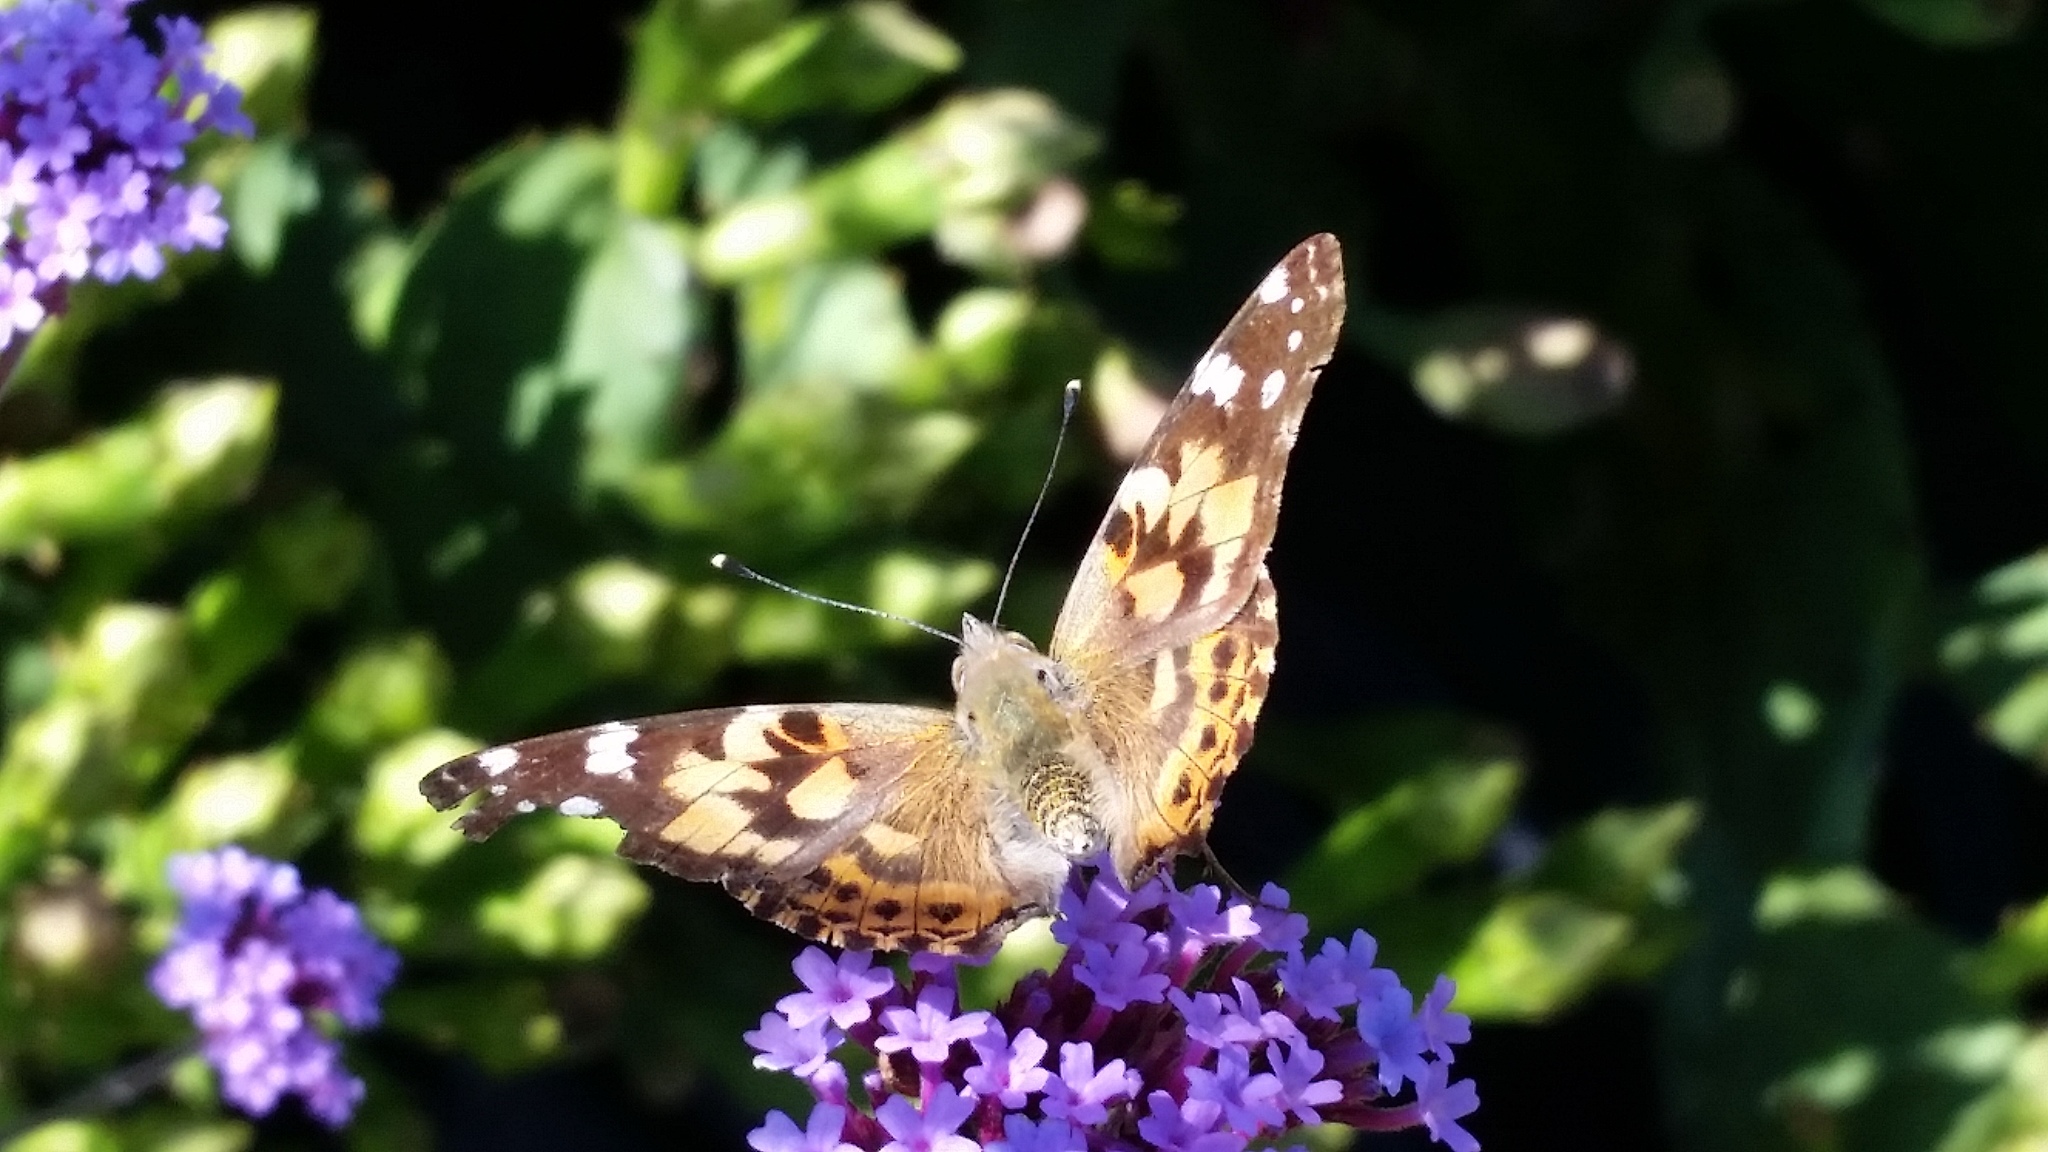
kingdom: Animalia
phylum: Arthropoda
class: Insecta
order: Lepidoptera
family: Nymphalidae
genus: Vanessa
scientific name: Vanessa cardui
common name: Painted lady
